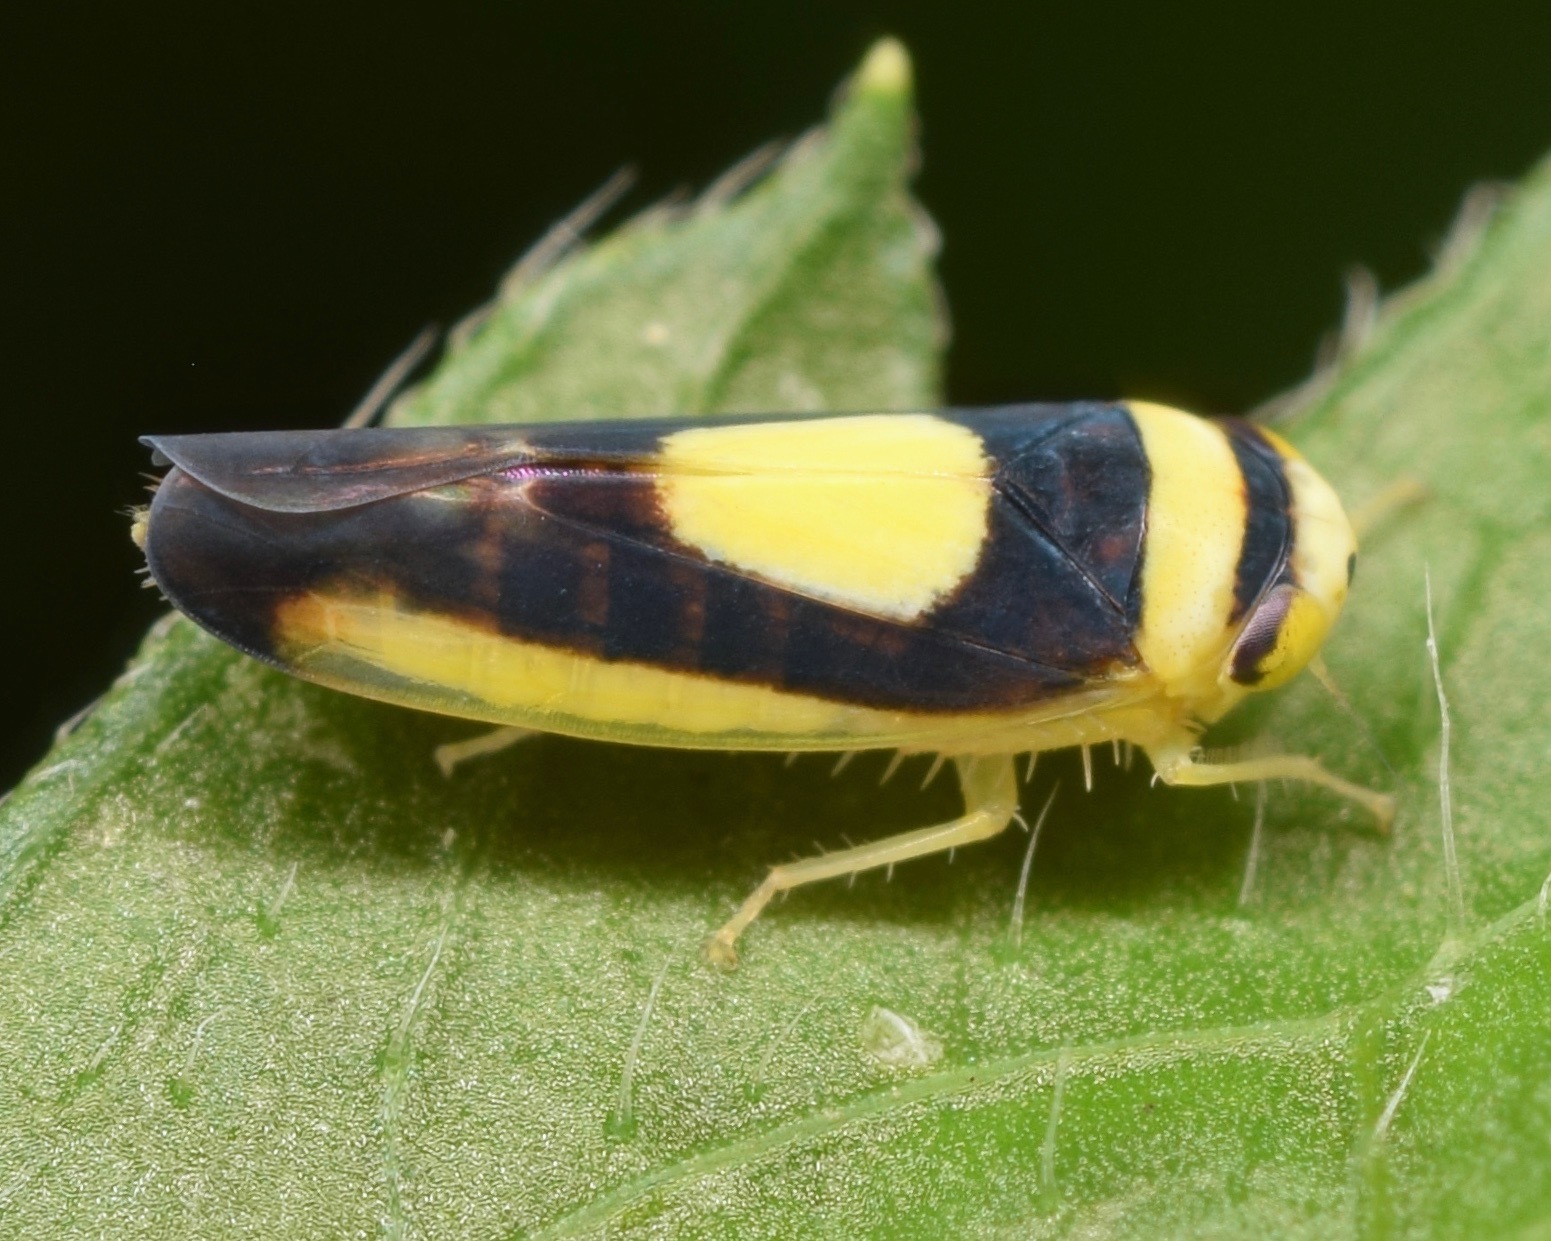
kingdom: Animalia
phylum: Arthropoda
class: Insecta
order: Hemiptera
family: Cicadellidae
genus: Colladonus
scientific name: Colladonus clitellarius
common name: The saddleback leafhopper
